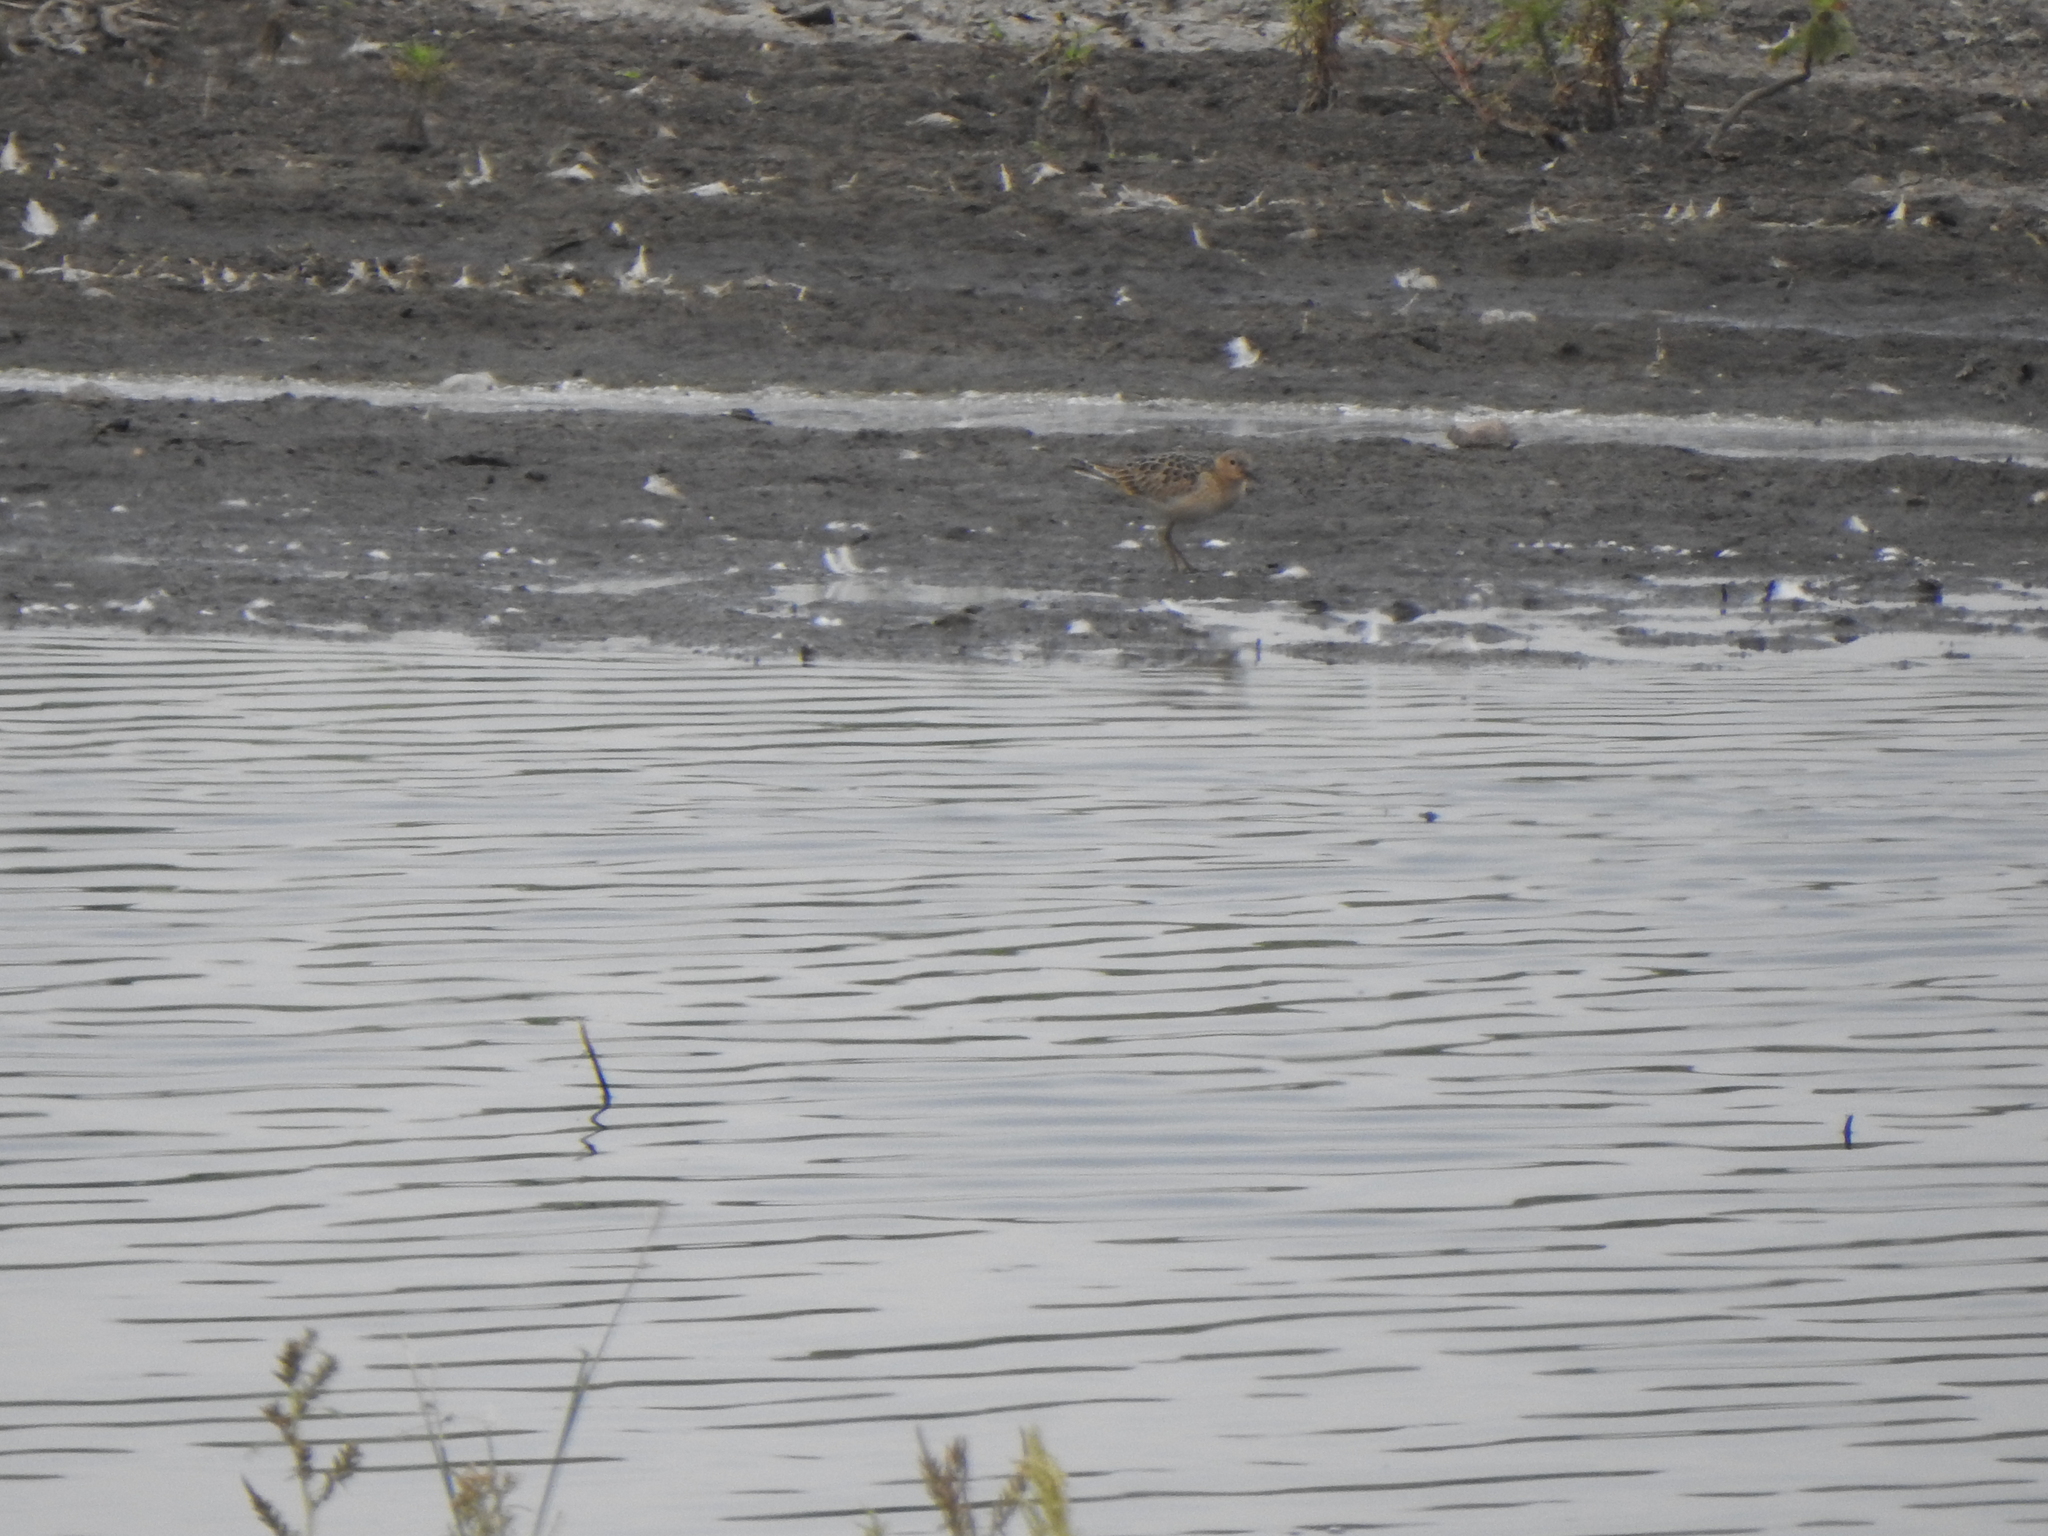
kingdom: Animalia
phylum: Chordata
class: Aves
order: Charadriiformes
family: Scolopacidae
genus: Calidris
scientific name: Calidris subruficollis
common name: Buff-breasted sandpiper
